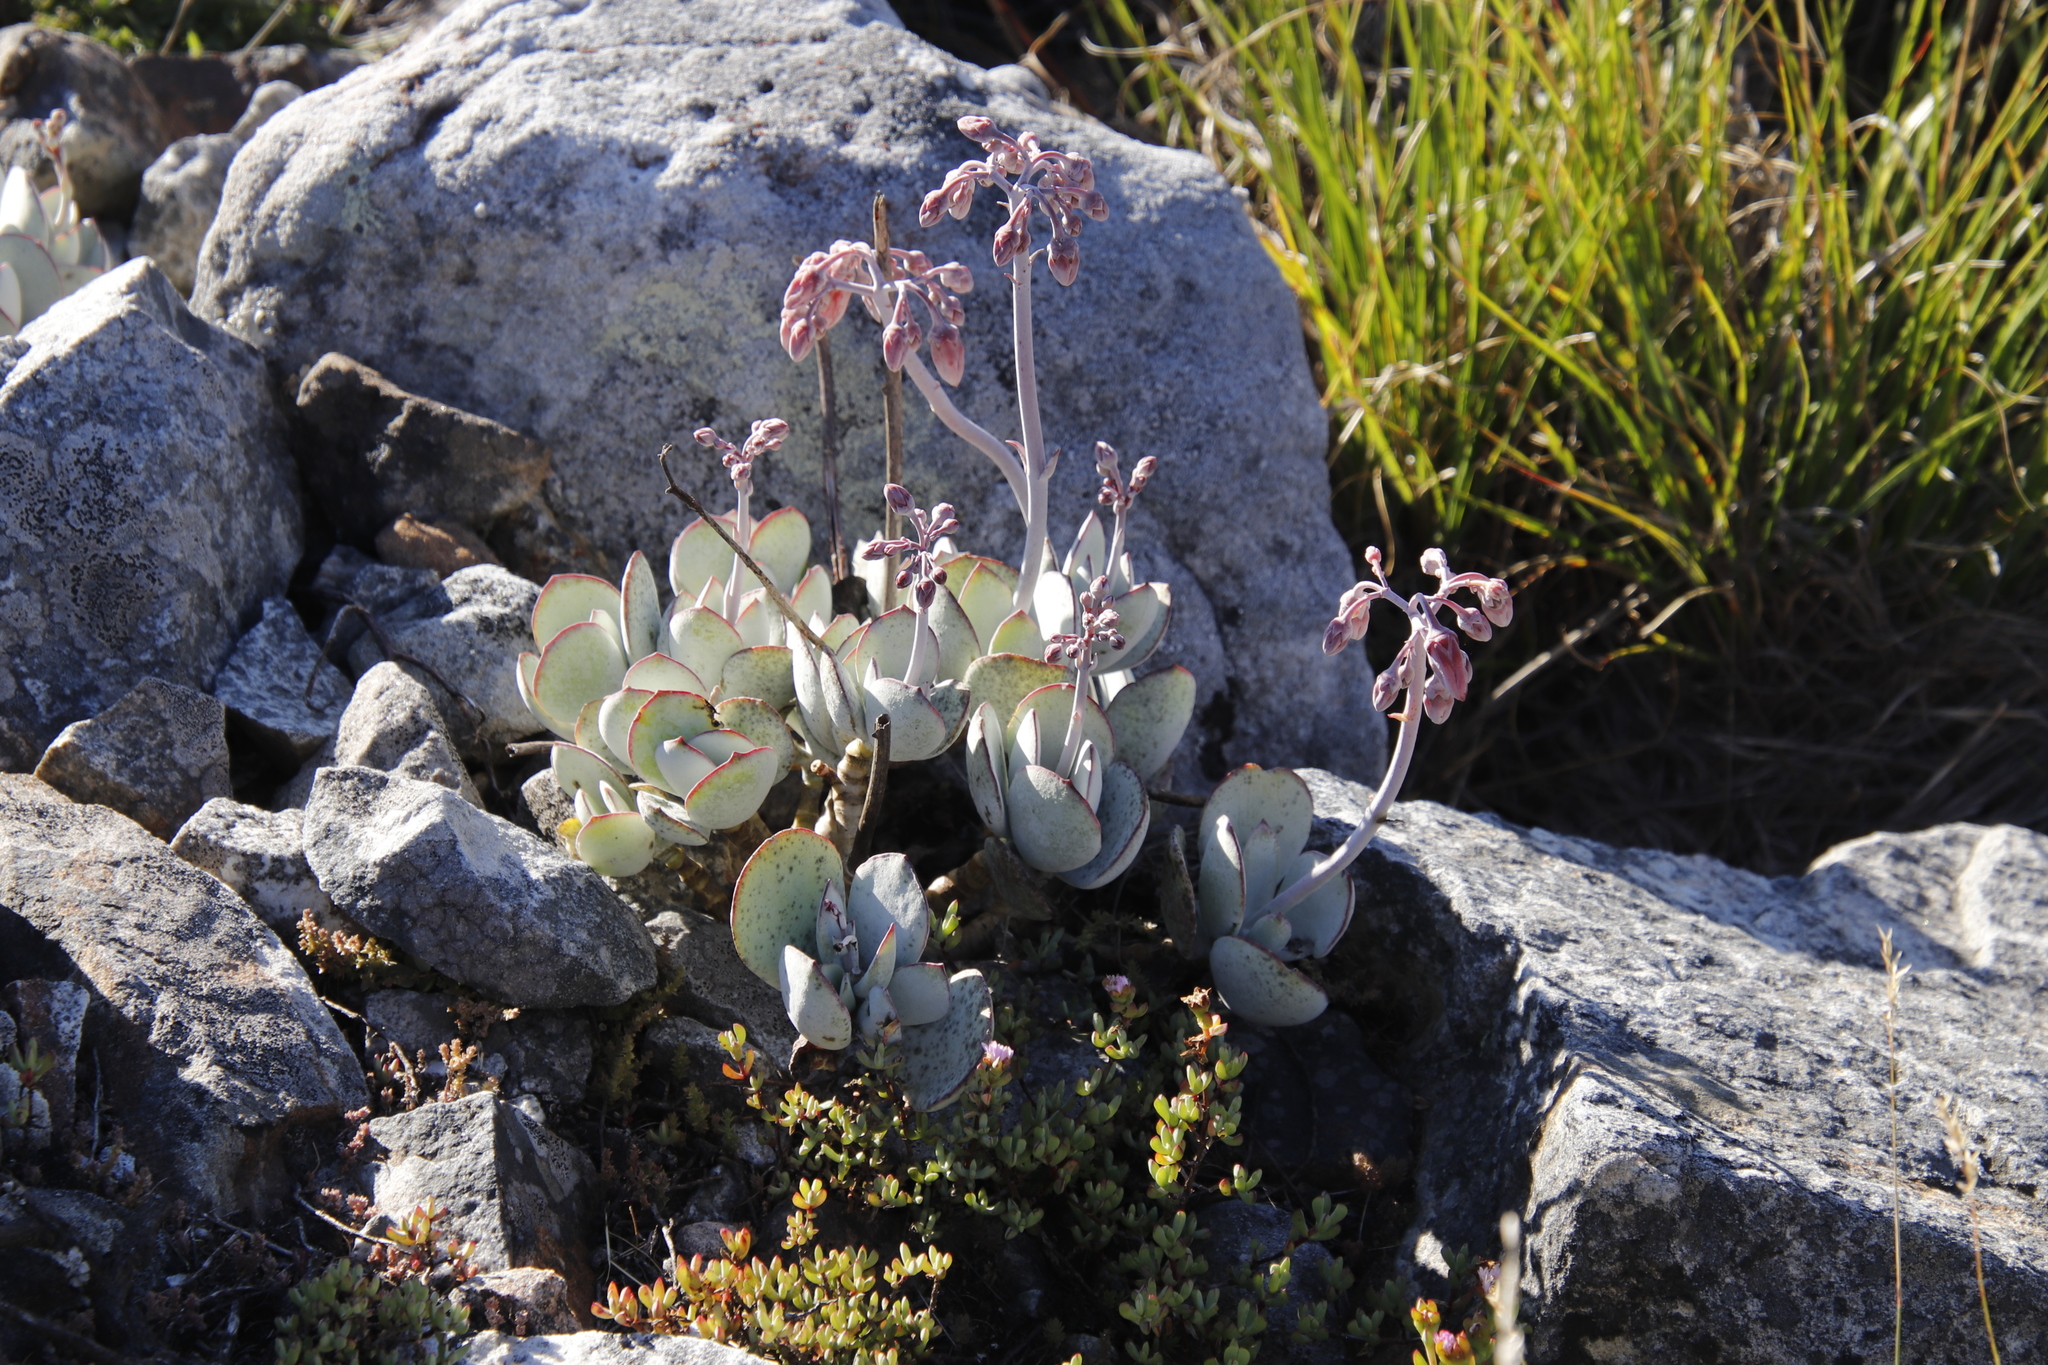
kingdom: Plantae
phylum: Tracheophyta
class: Magnoliopsida
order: Saxifragales
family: Crassulaceae
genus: Cotyledon
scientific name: Cotyledon orbiculata
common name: Pig's ear
